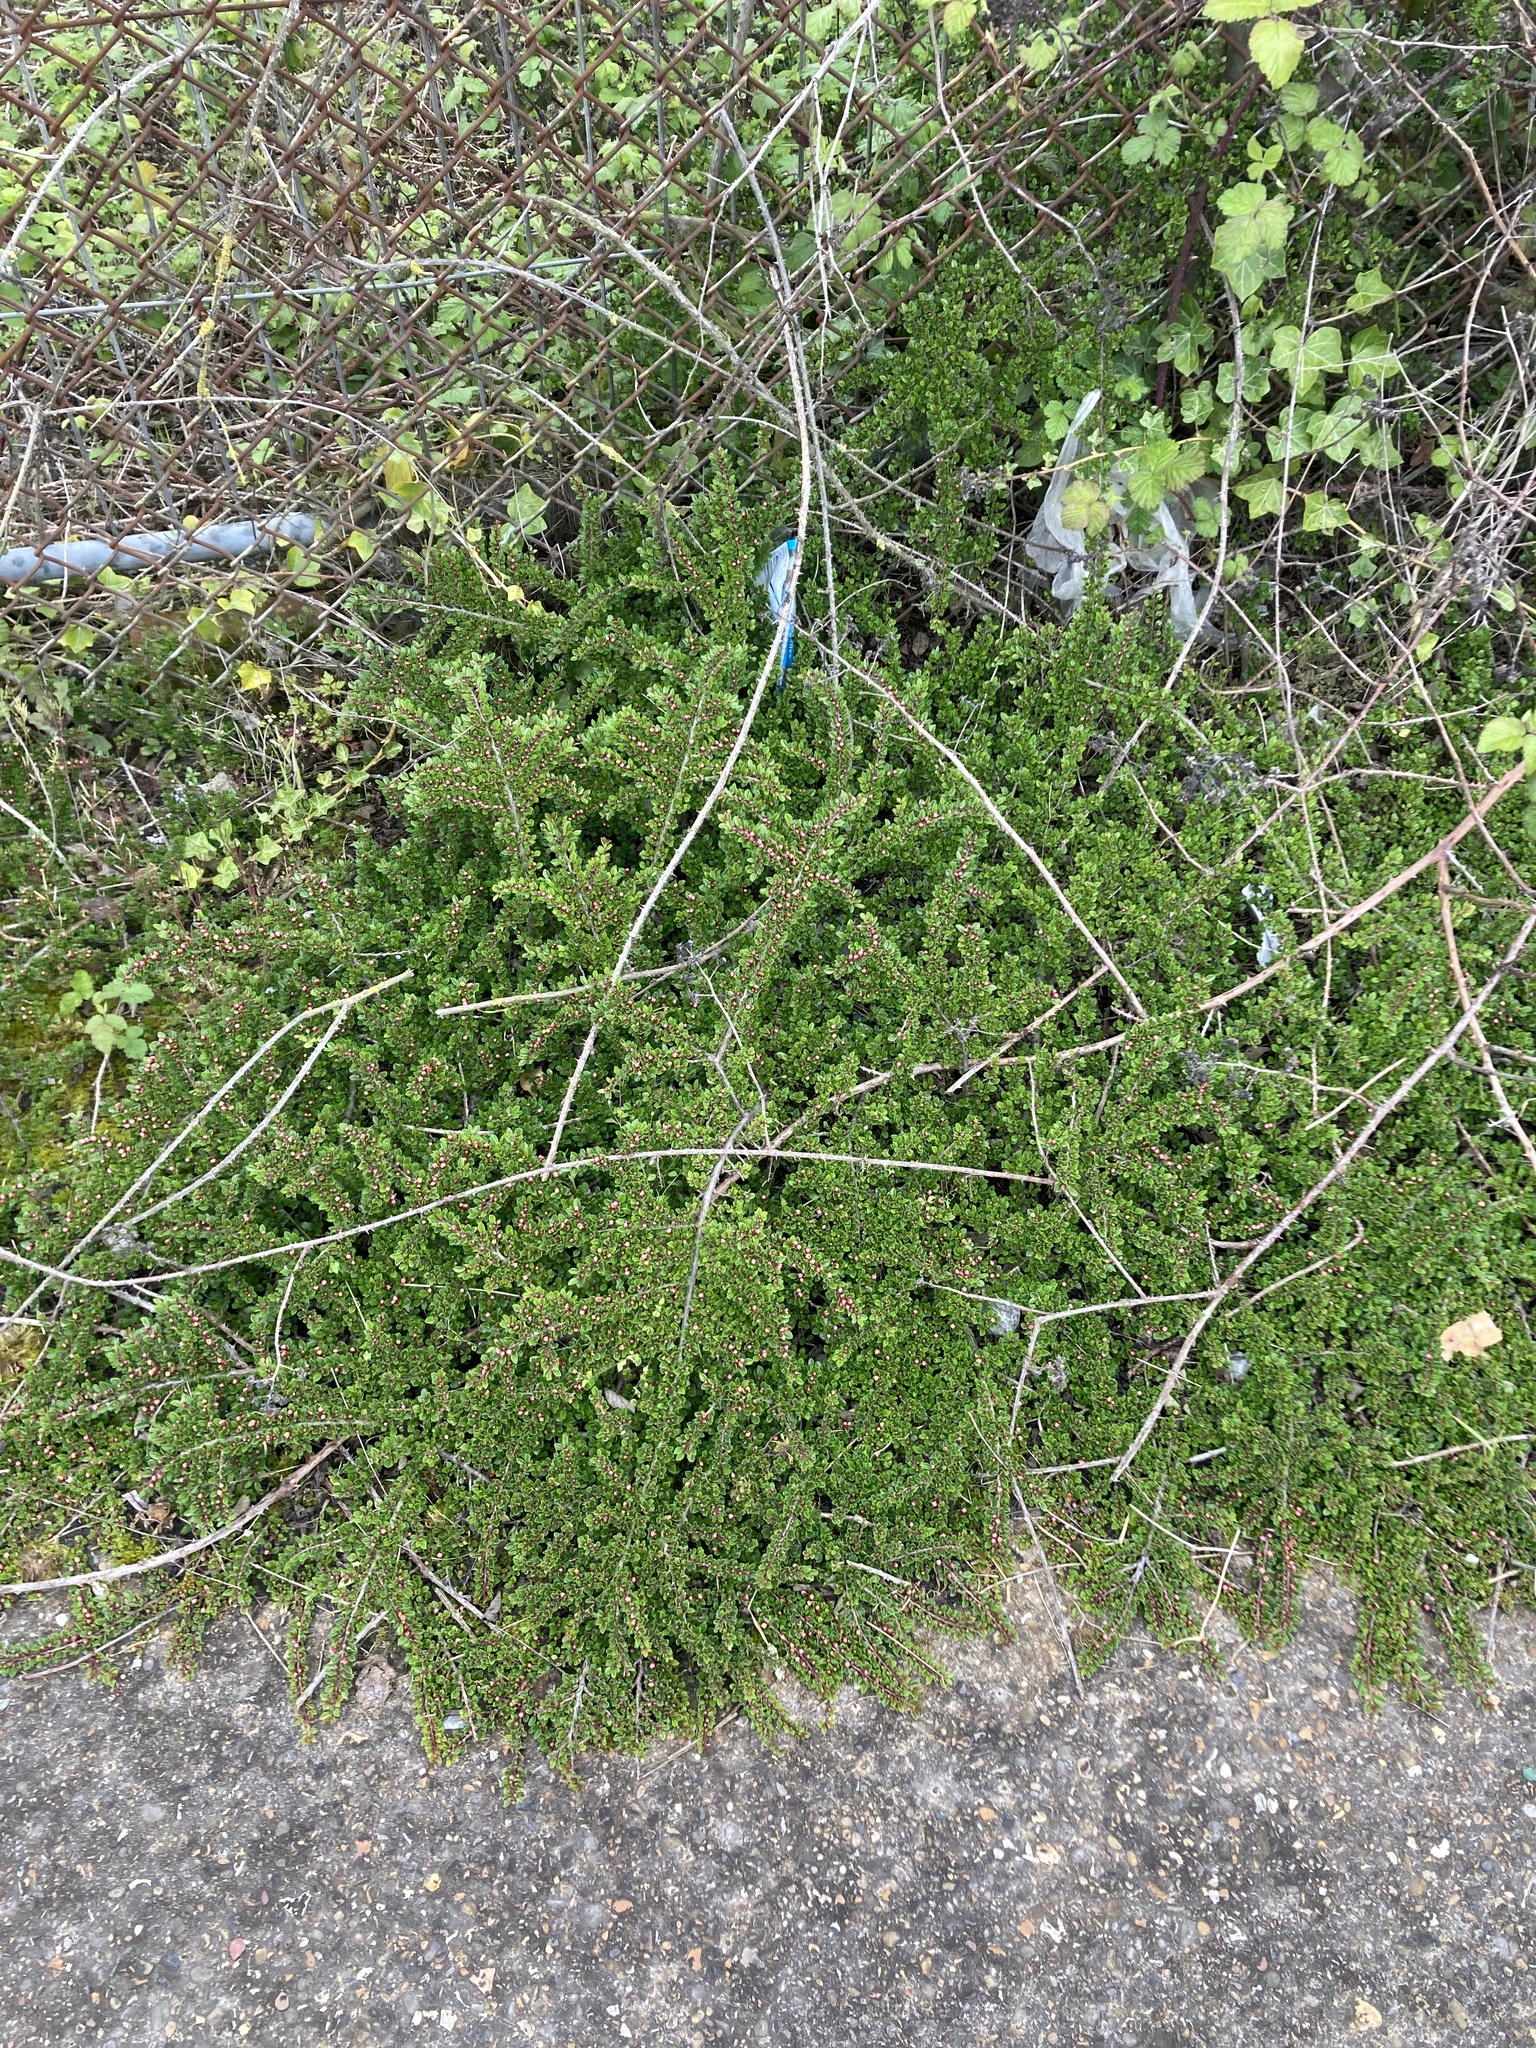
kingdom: Plantae
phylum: Tracheophyta
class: Magnoliopsida
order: Rosales
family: Rosaceae
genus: Cotoneaster
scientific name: Cotoneaster horizontalis
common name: Wall cotoneaster
